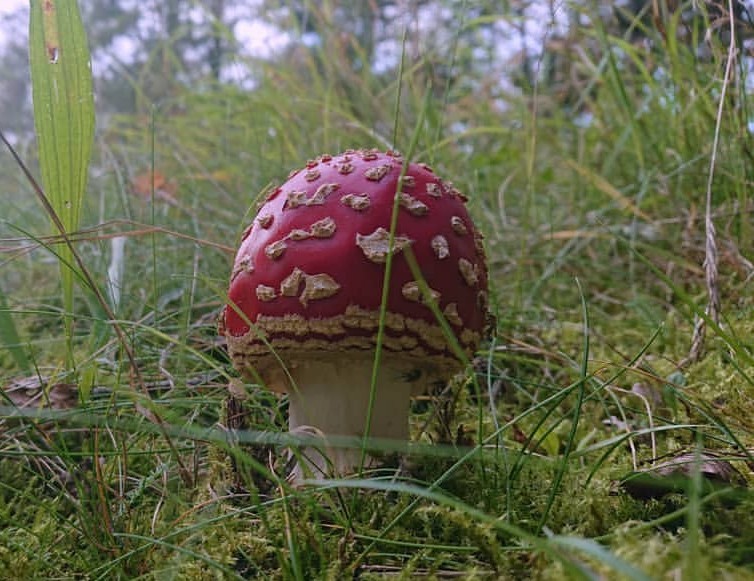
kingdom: Fungi
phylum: Basidiomycota
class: Agaricomycetes
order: Agaricales
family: Amanitaceae
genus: Amanita
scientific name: Amanita muscaria
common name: Fly agaric
